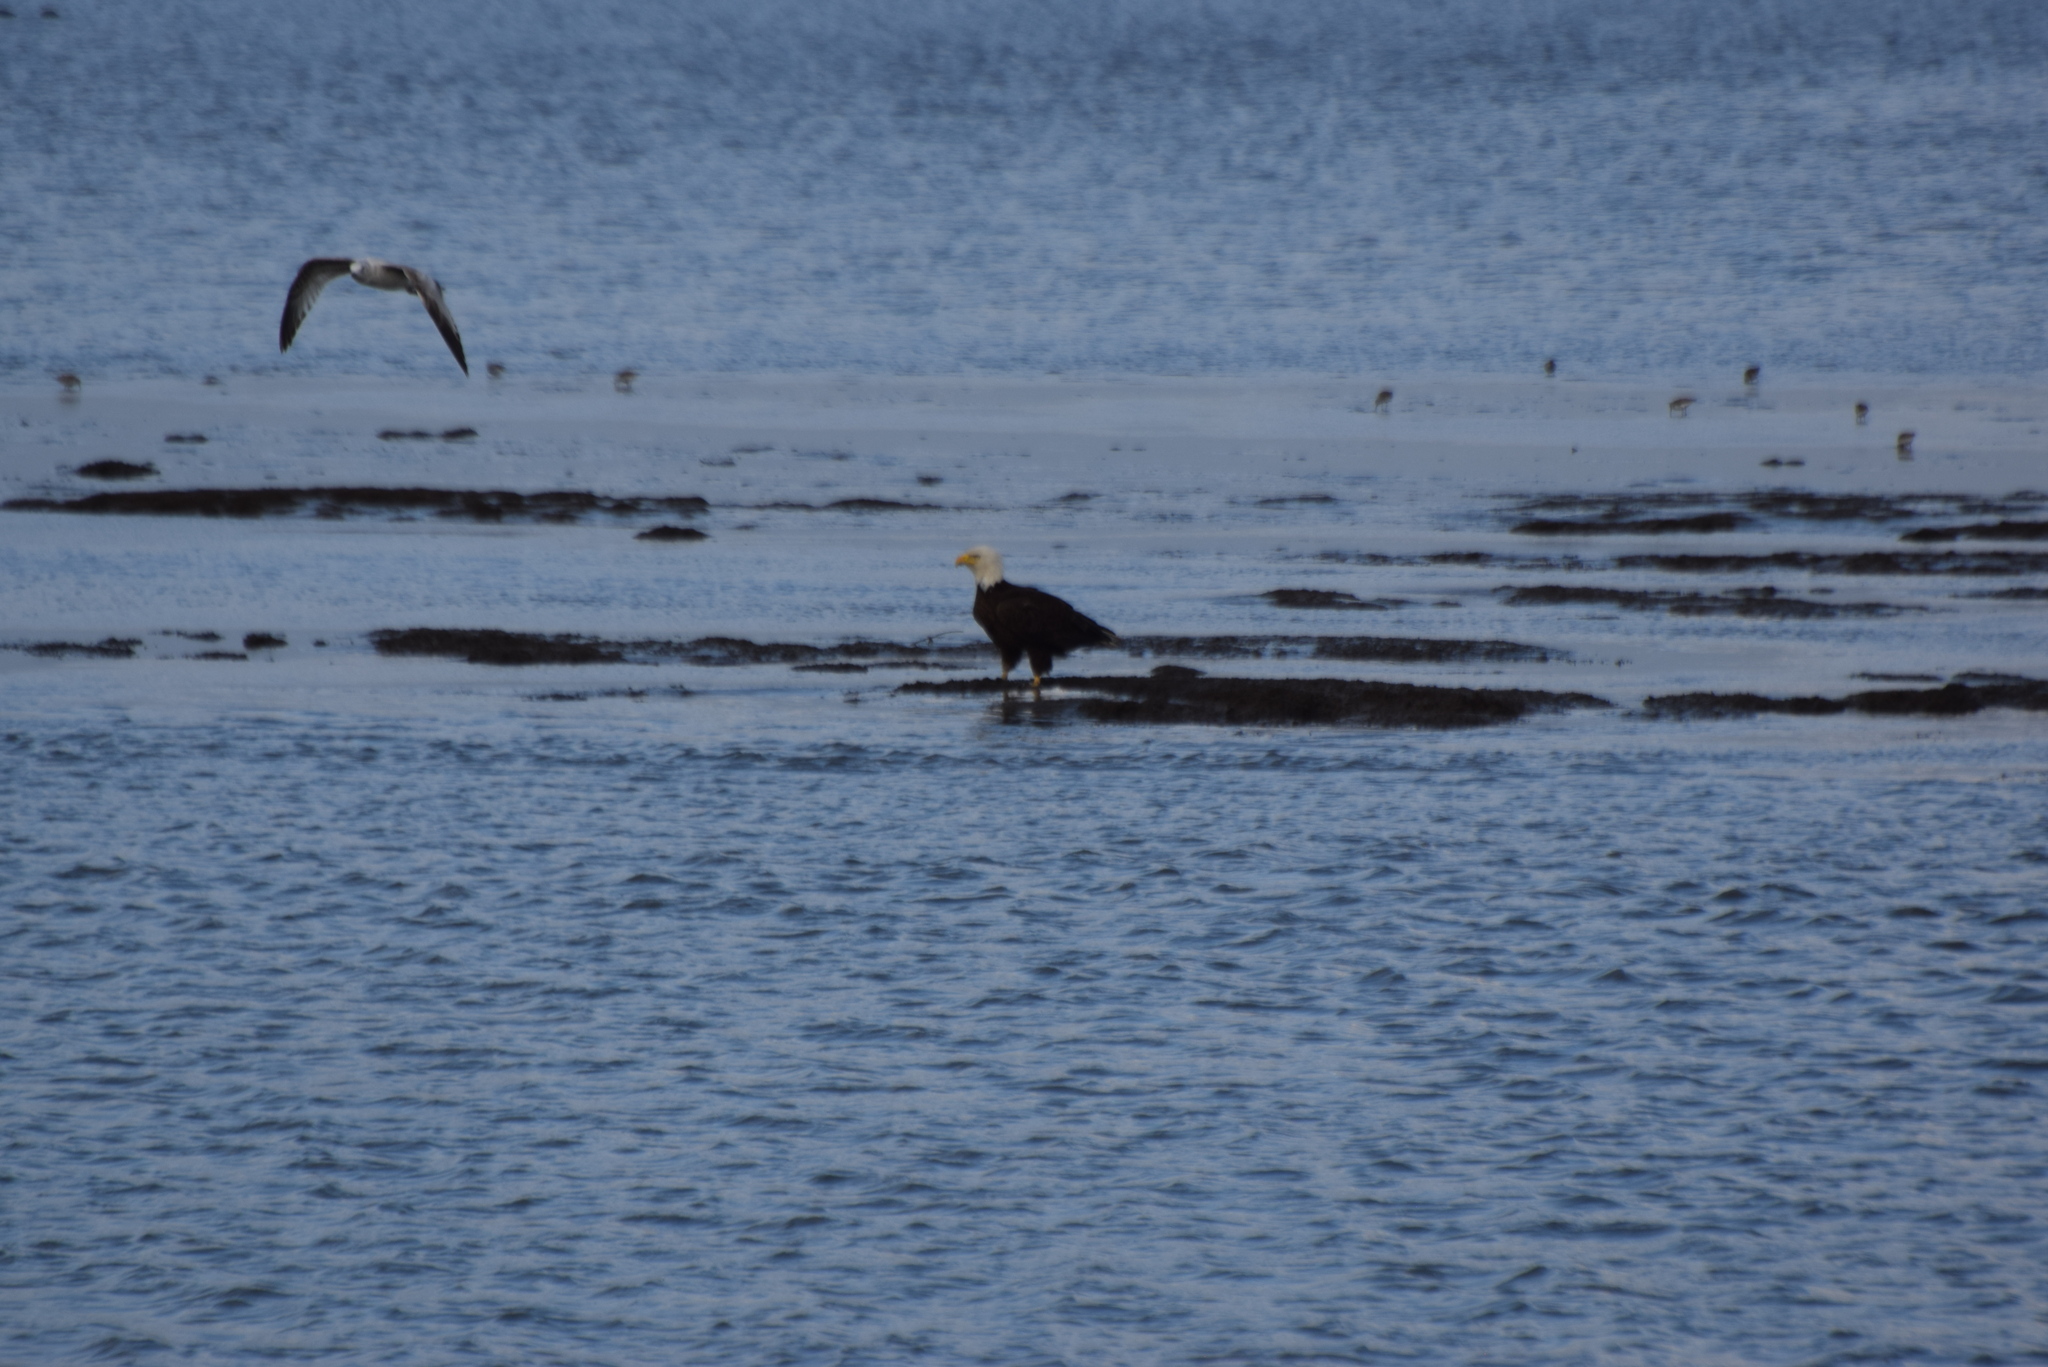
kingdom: Animalia
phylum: Chordata
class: Aves
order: Accipitriformes
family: Accipitridae
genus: Haliaeetus
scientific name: Haliaeetus leucocephalus
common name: Bald eagle
